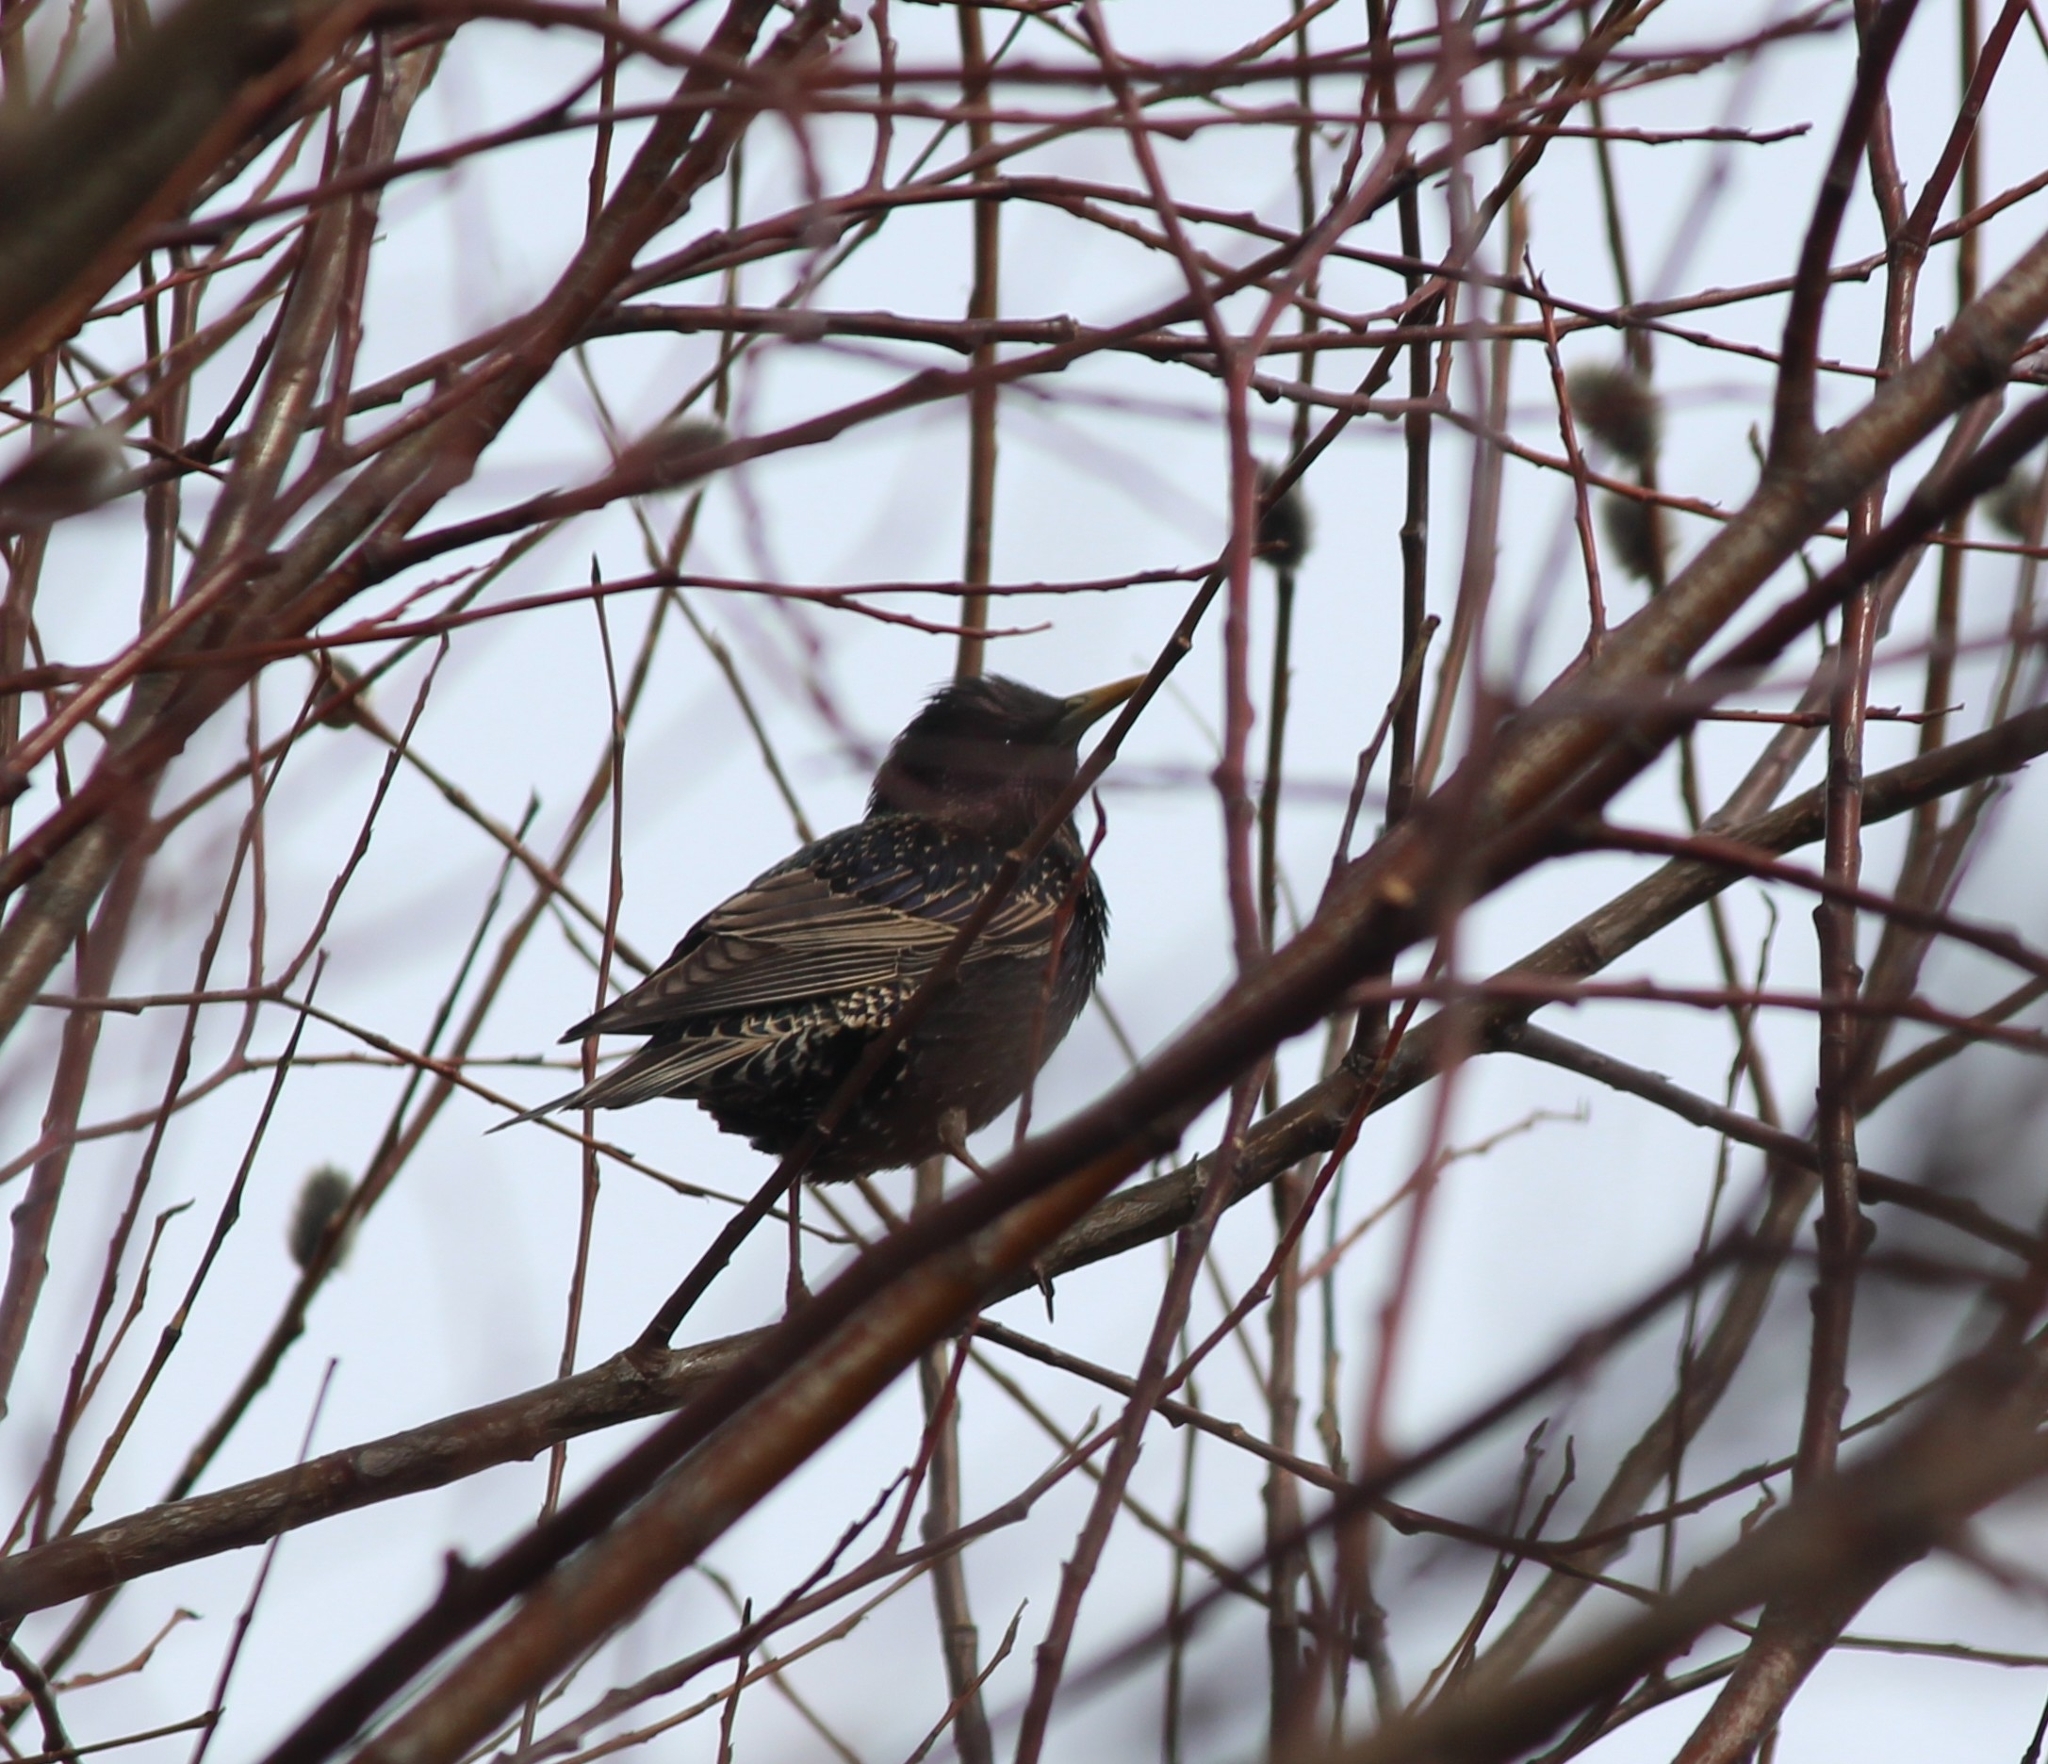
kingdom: Animalia
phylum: Chordata
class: Aves
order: Passeriformes
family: Sturnidae
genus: Sturnus
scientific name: Sturnus vulgaris
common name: Common starling
